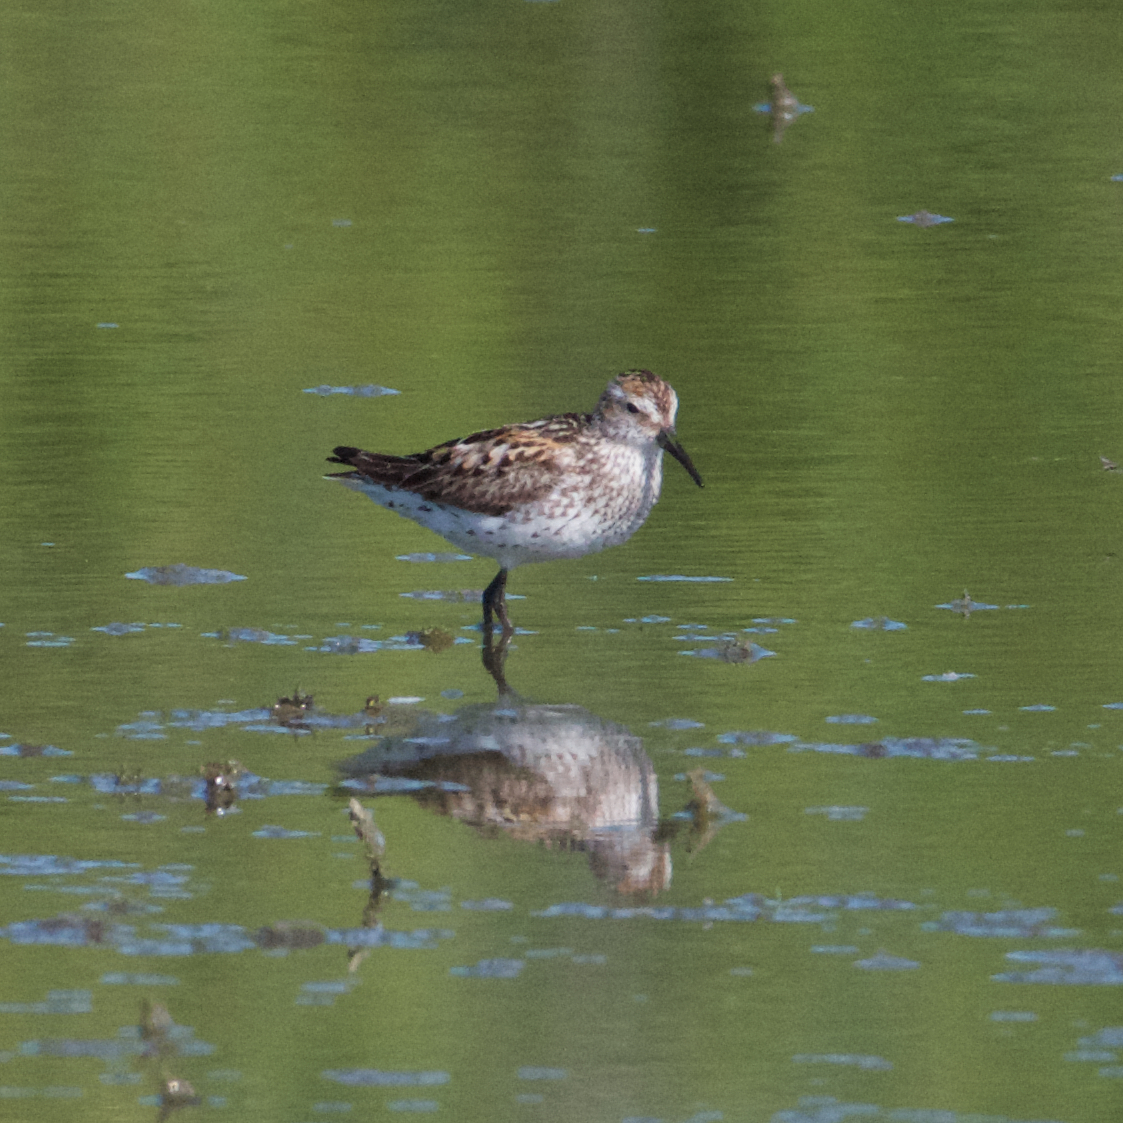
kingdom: Animalia
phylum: Chordata
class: Aves
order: Charadriiformes
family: Scolopacidae
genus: Calidris
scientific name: Calidris mauri
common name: Western sandpiper
